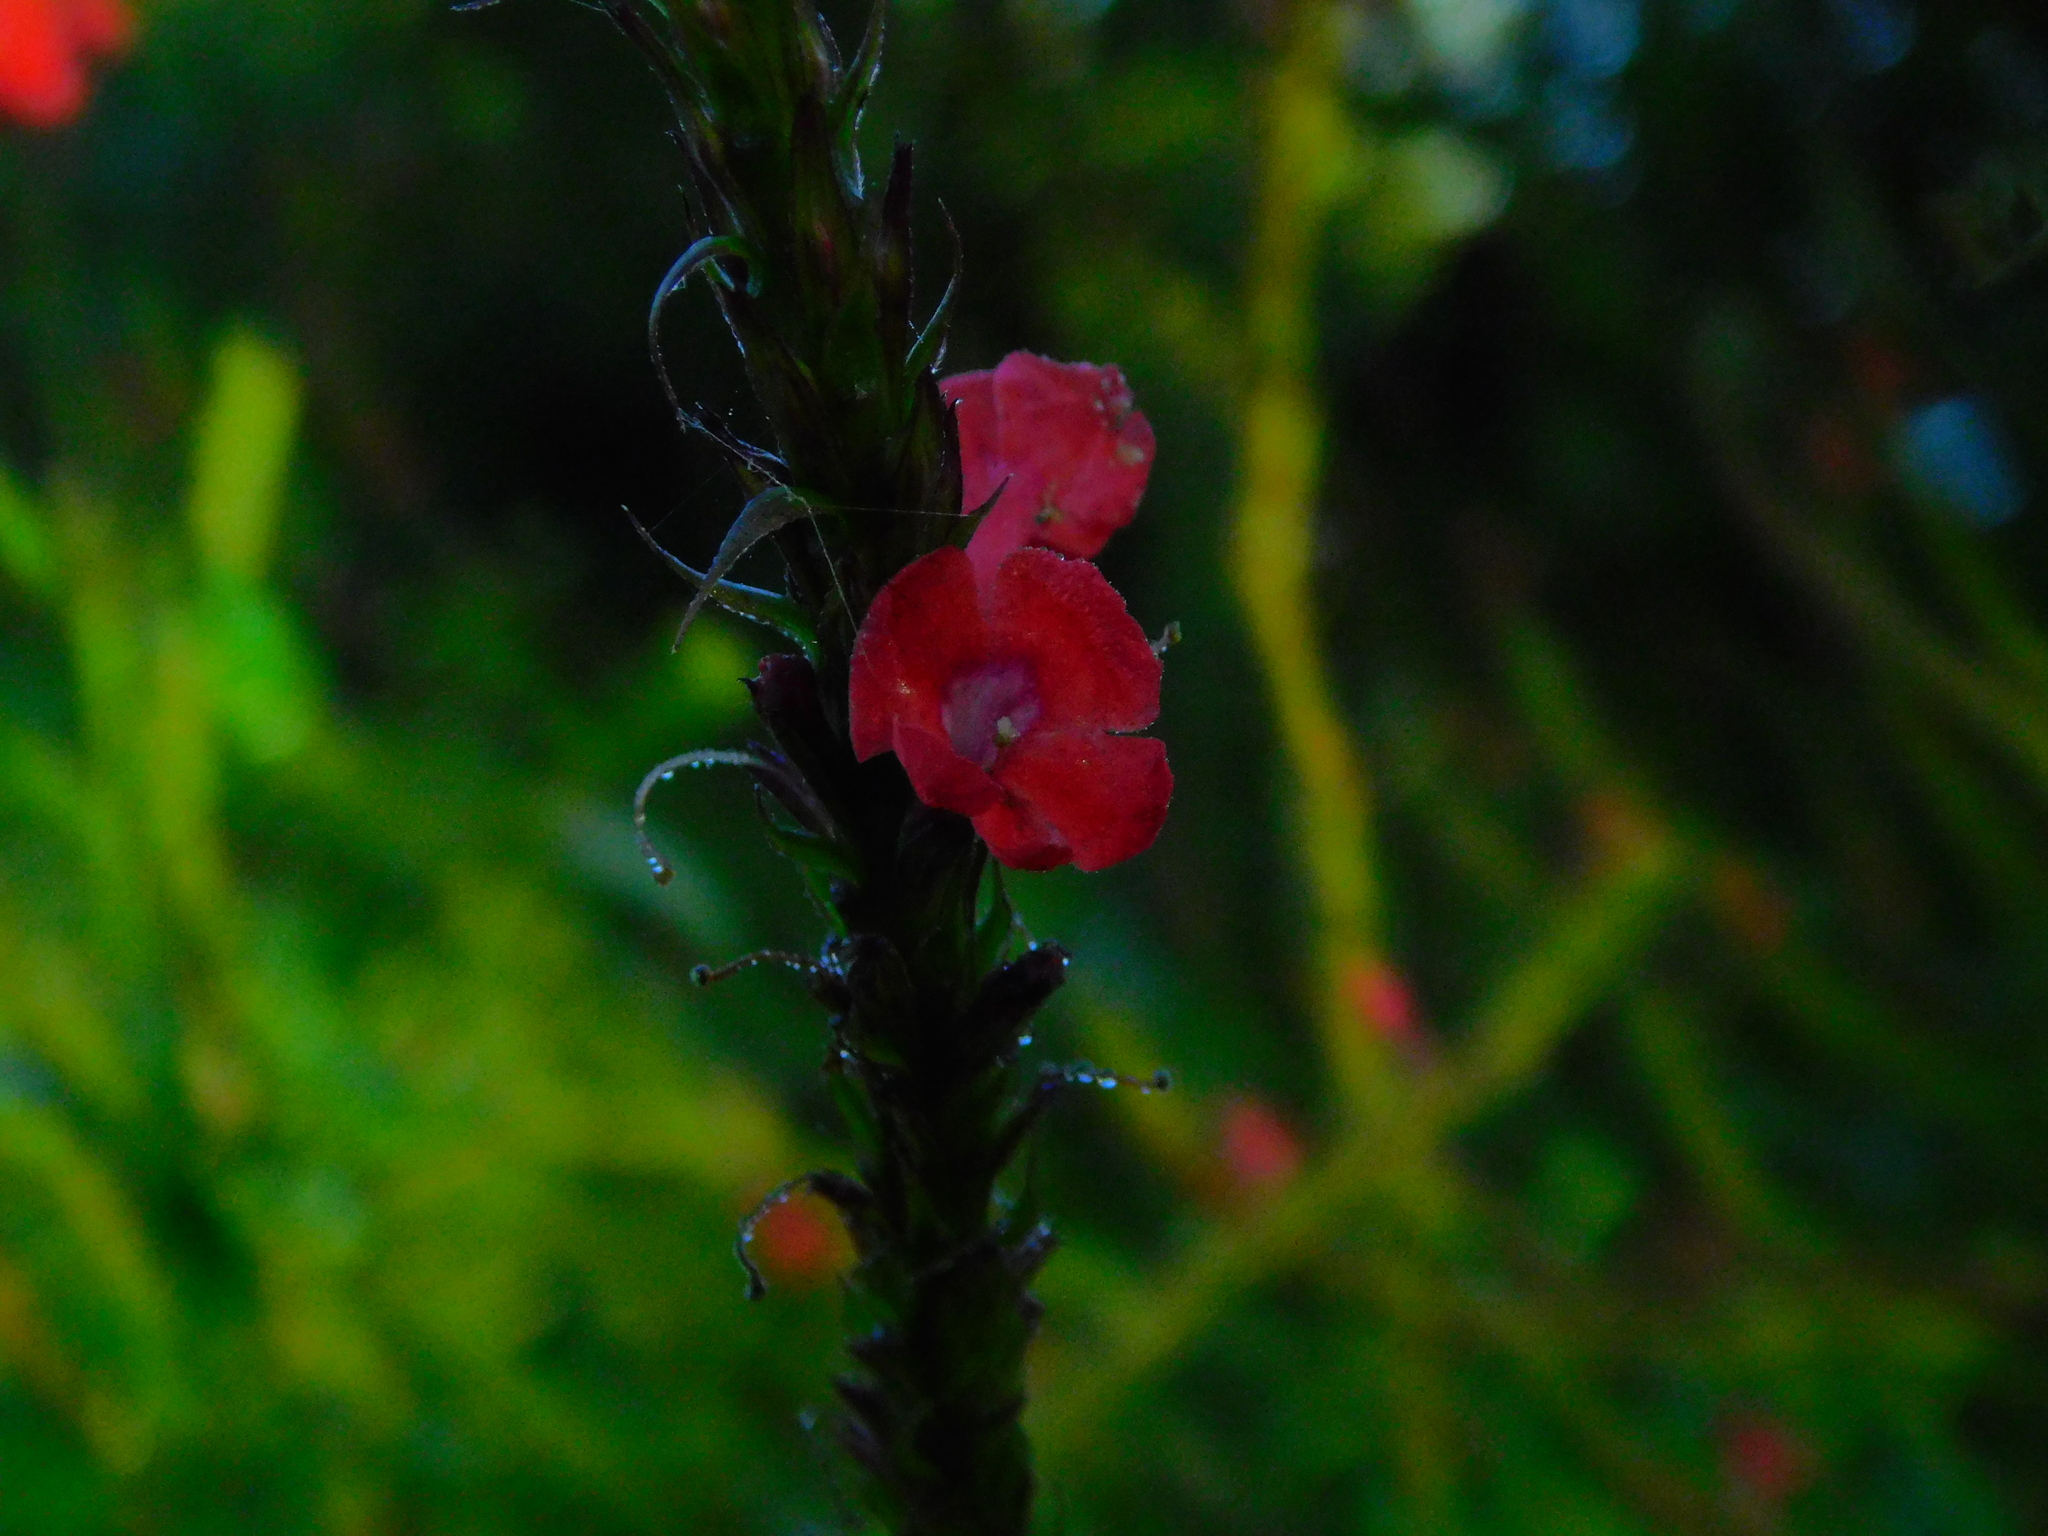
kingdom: Plantae
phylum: Tracheophyta
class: Magnoliopsida
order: Lamiales
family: Verbenaceae
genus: Stachytarpheta
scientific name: Stachytarpheta miniacea
